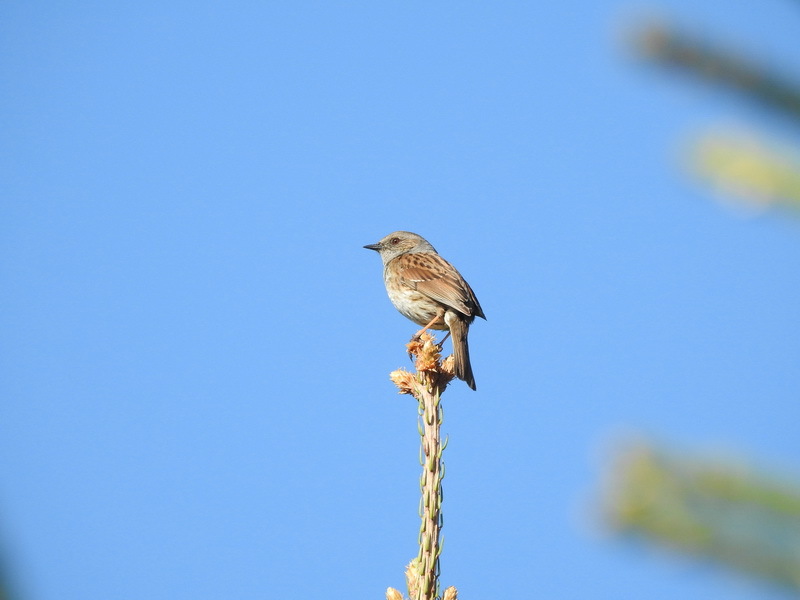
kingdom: Animalia
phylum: Chordata
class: Aves
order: Passeriformes
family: Prunellidae
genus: Prunella
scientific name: Prunella modularis
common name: Dunnock
